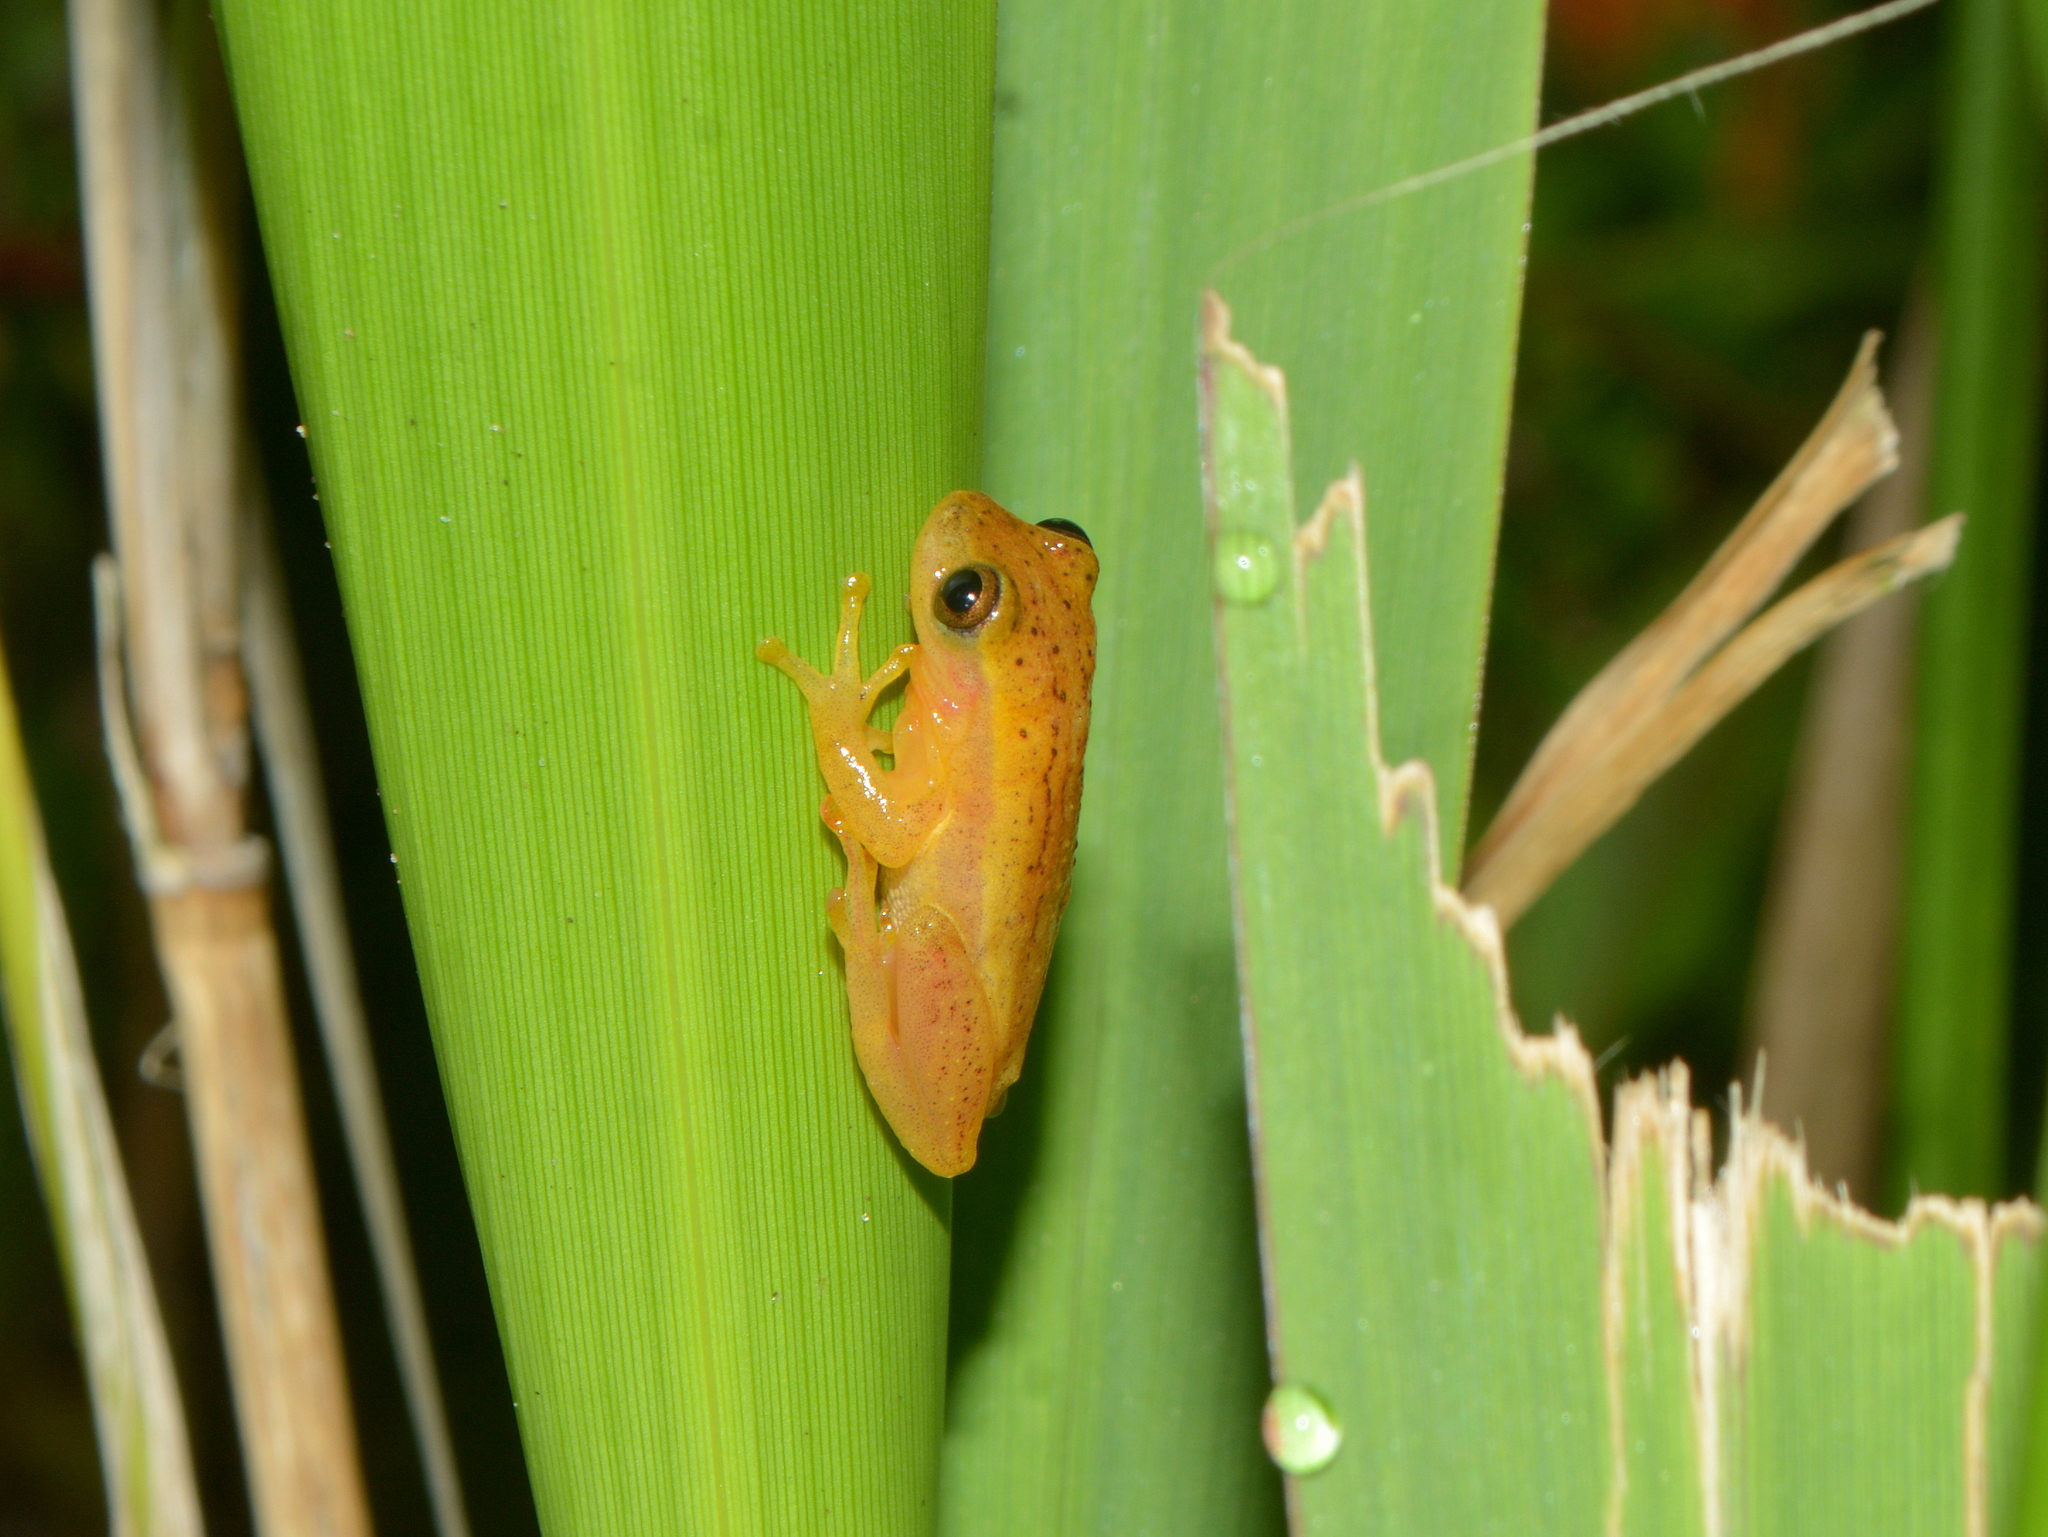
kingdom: Animalia
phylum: Chordata
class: Amphibia
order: Anura
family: Hylidae
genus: Dendropsophus
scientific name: Dendropsophus sanborni
